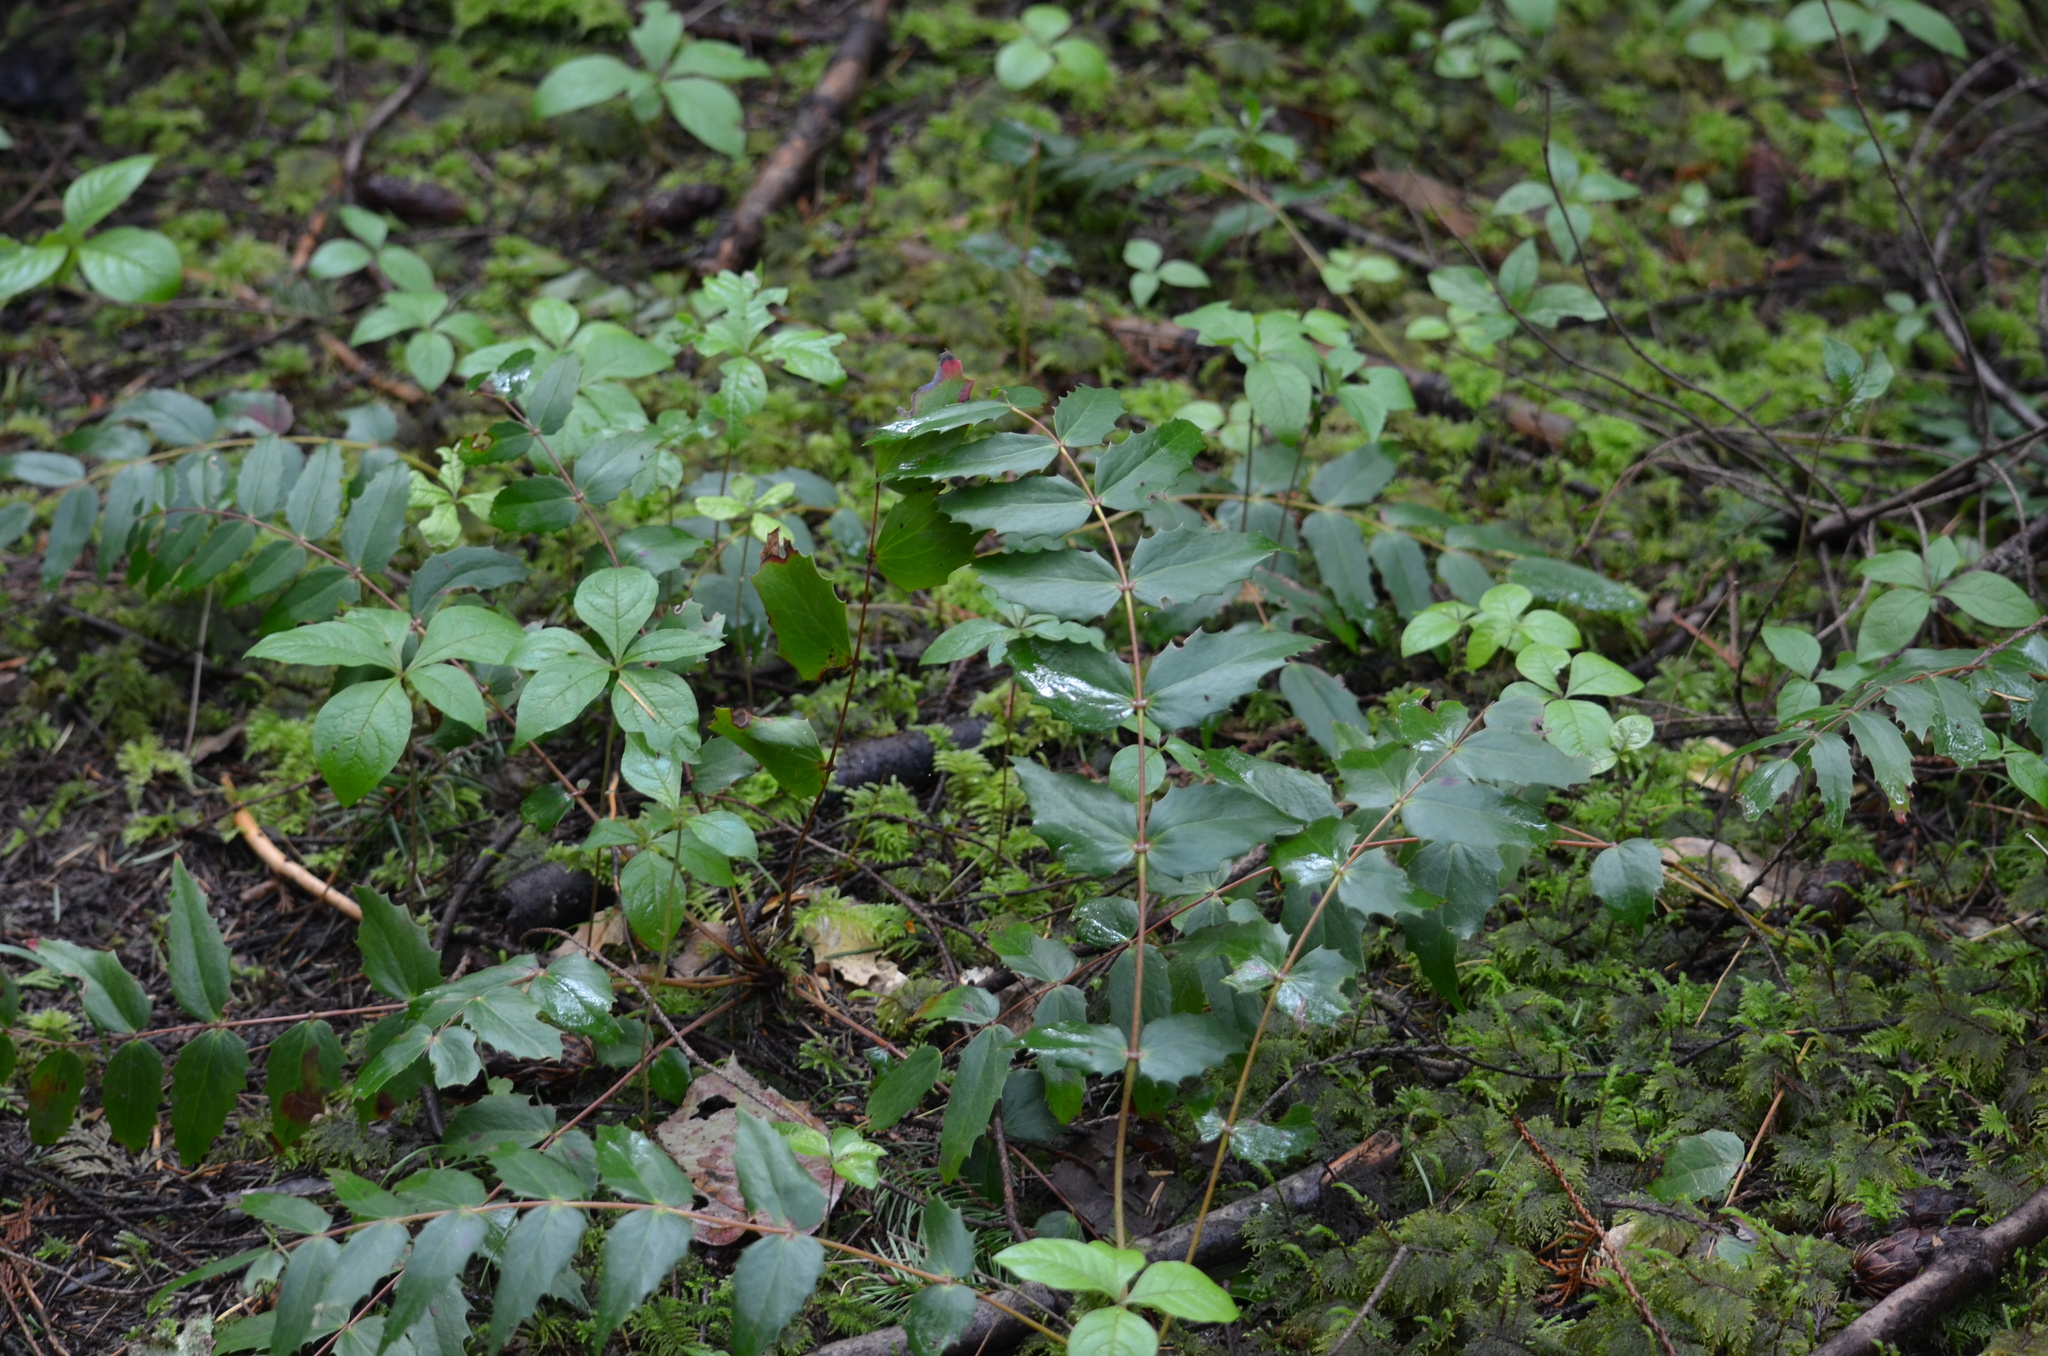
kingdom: Plantae
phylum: Tracheophyta
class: Magnoliopsida
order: Ranunculales
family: Berberidaceae
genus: Mahonia
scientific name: Mahonia nervosa
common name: Cascade oregon-grape
